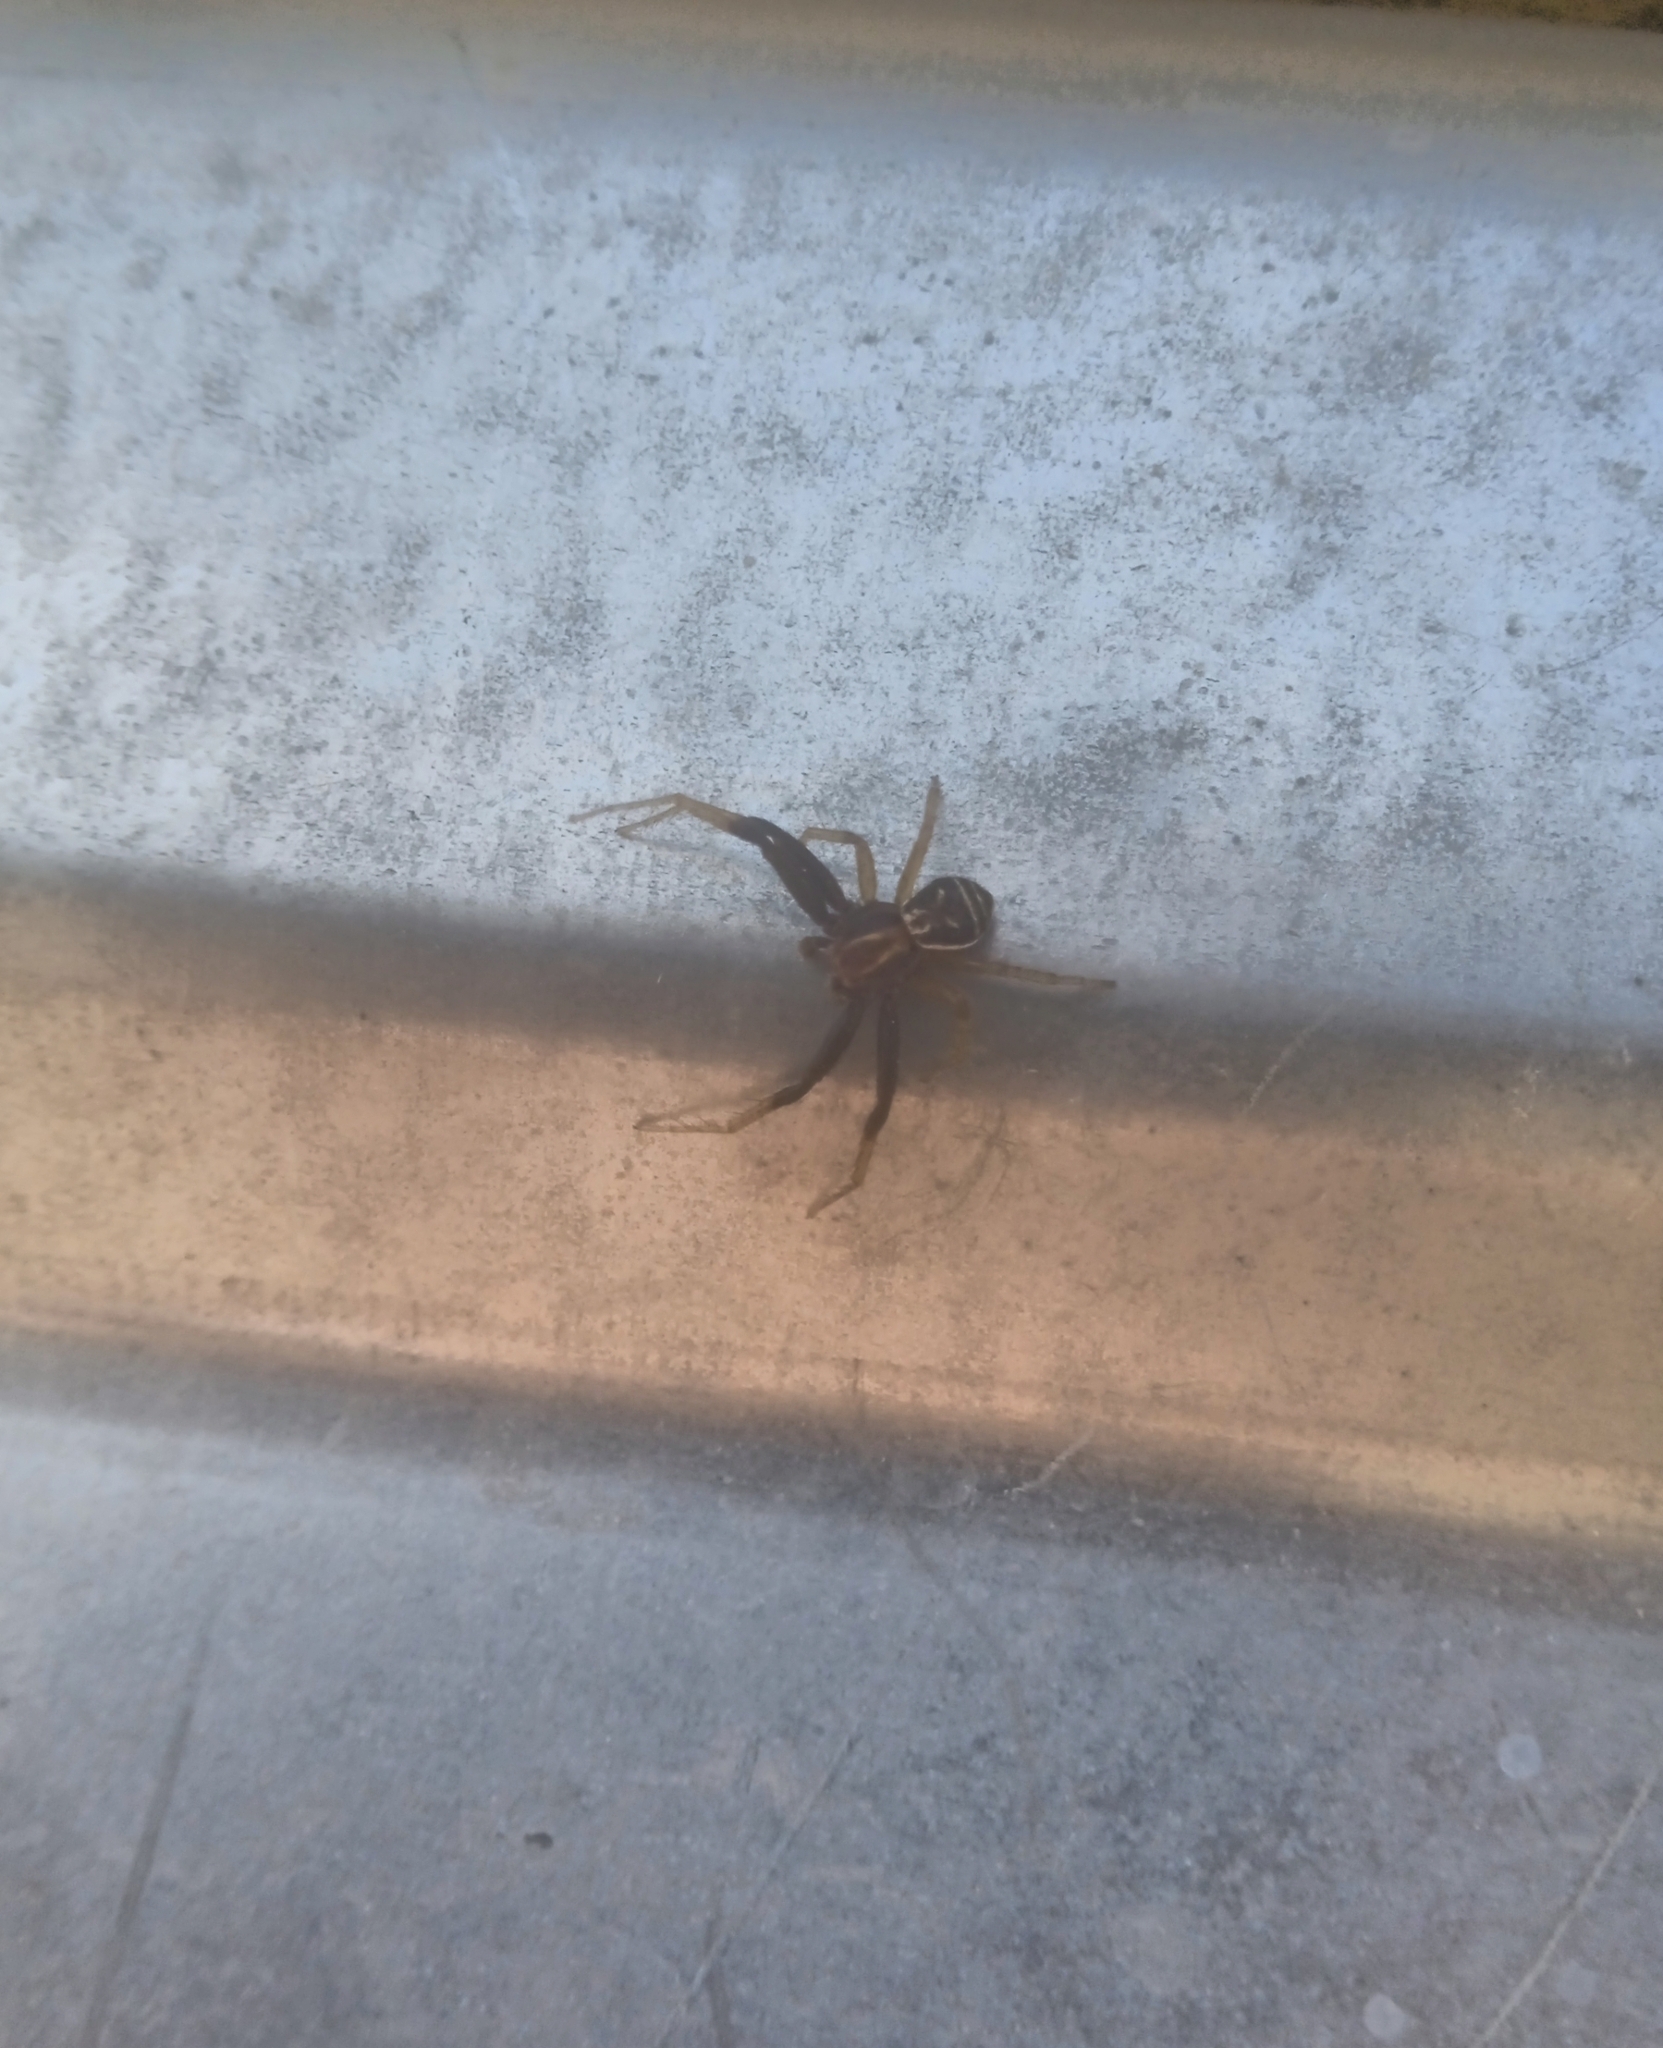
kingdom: Animalia
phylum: Arthropoda
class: Arachnida
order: Araneae
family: Thomisidae
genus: Xysticus
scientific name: Xysticus ulmi
